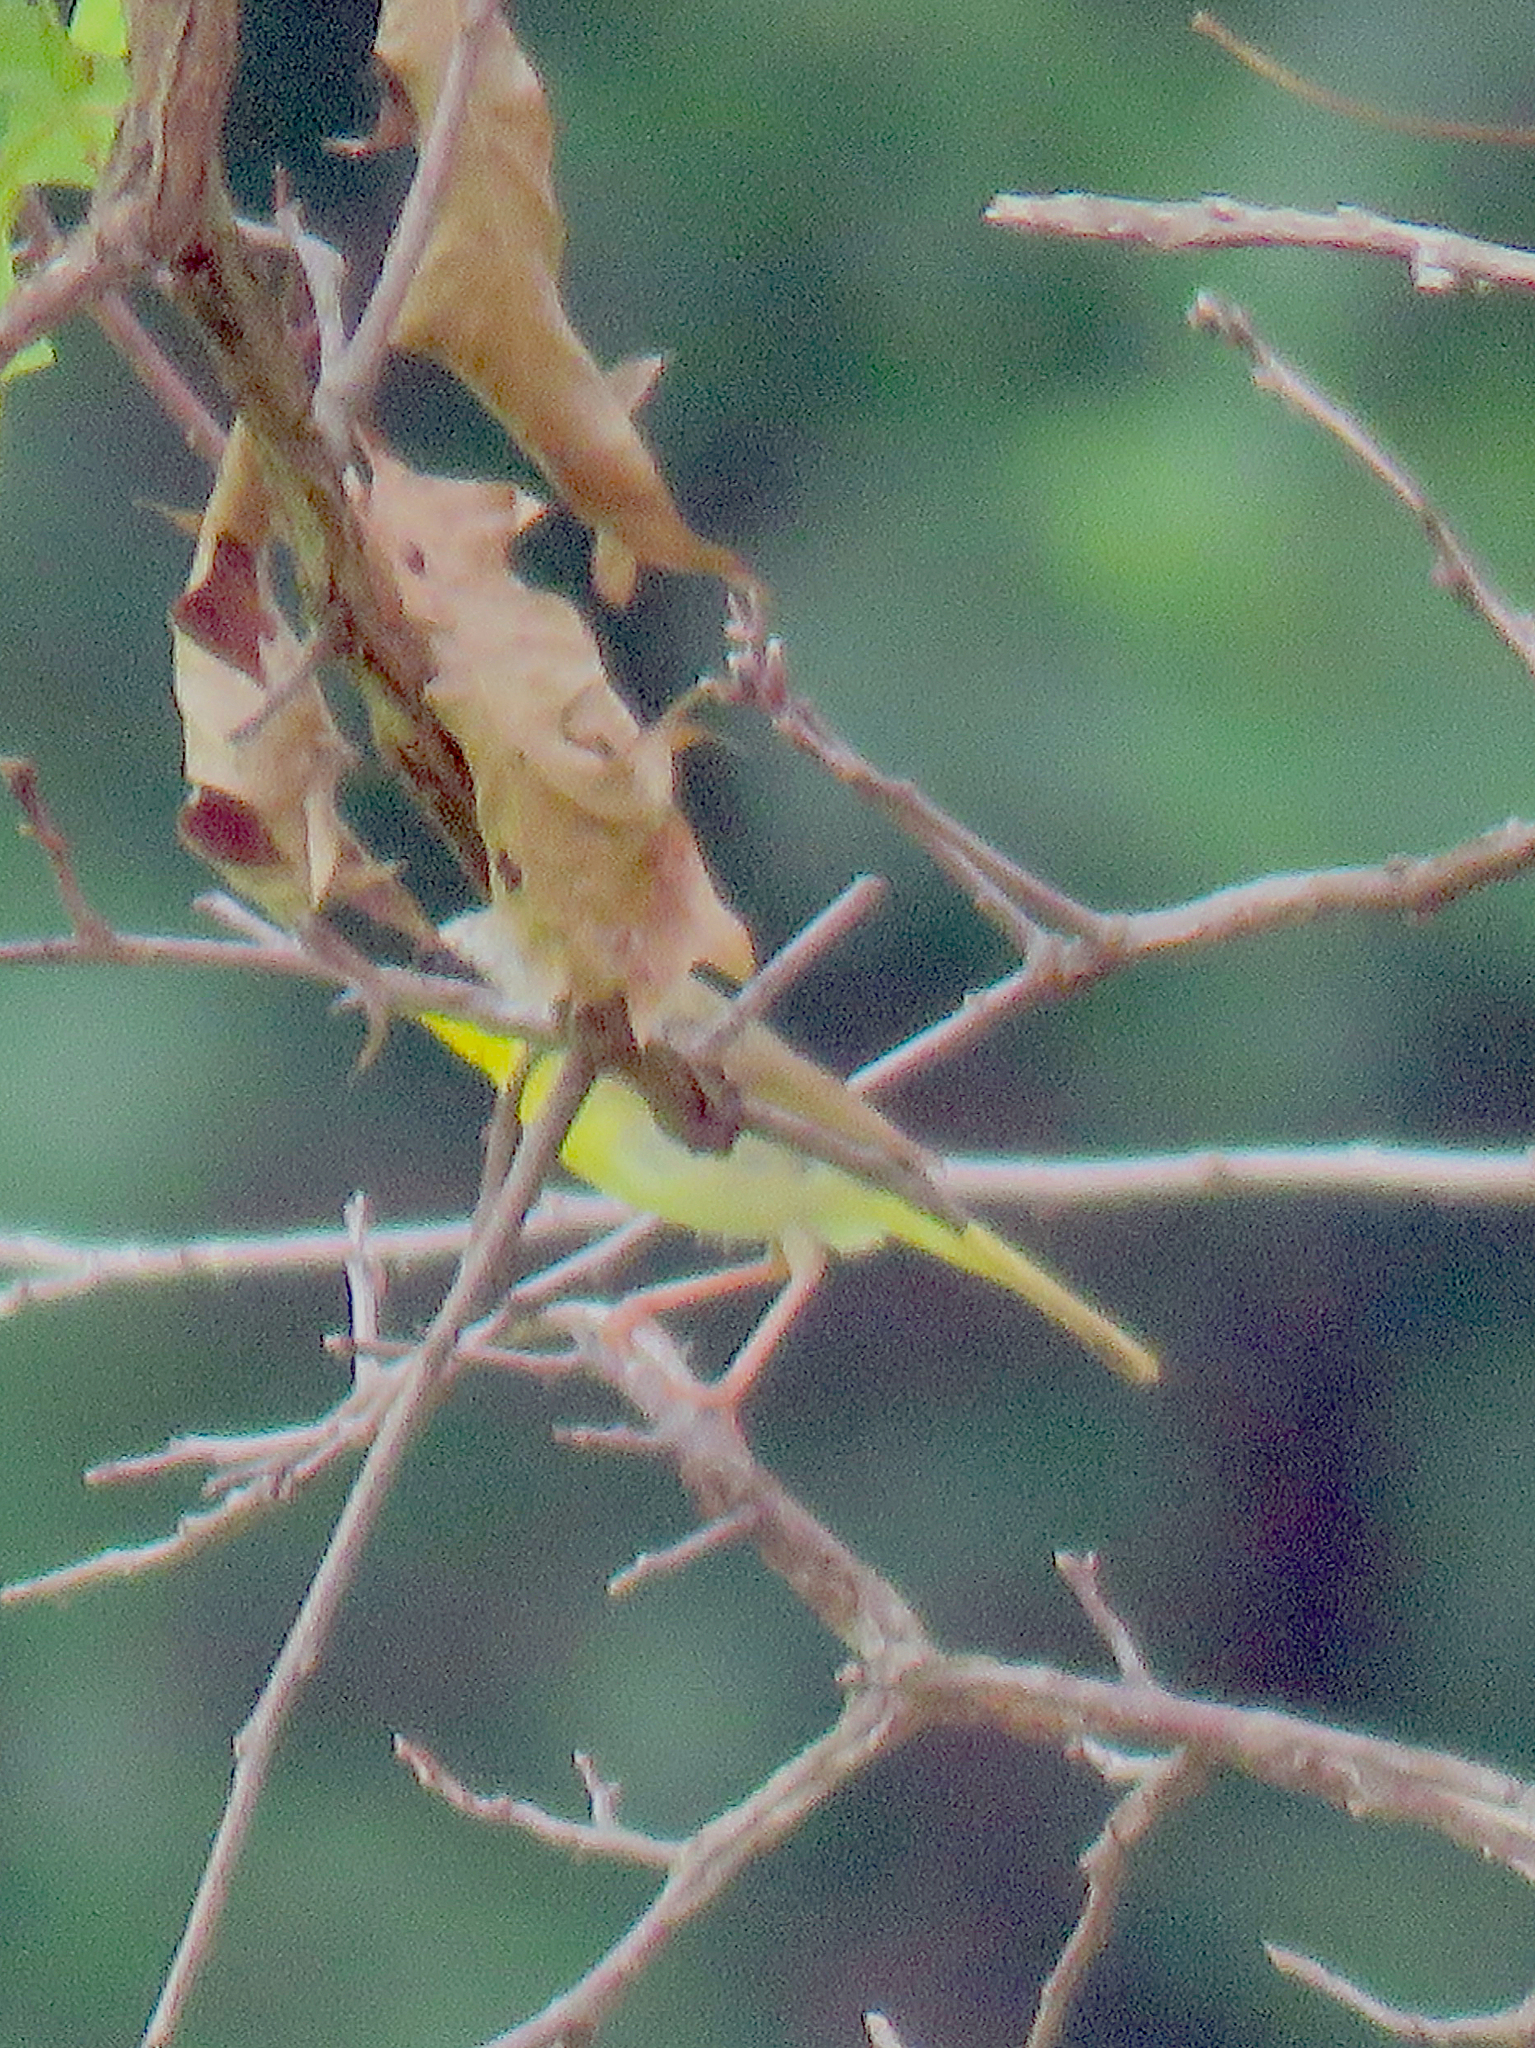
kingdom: Animalia
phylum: Chordata
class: Aves
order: Passeriformes
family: Parulidae
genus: Geothlypis
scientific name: Geothlypis trichas
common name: Common yellowthroat
